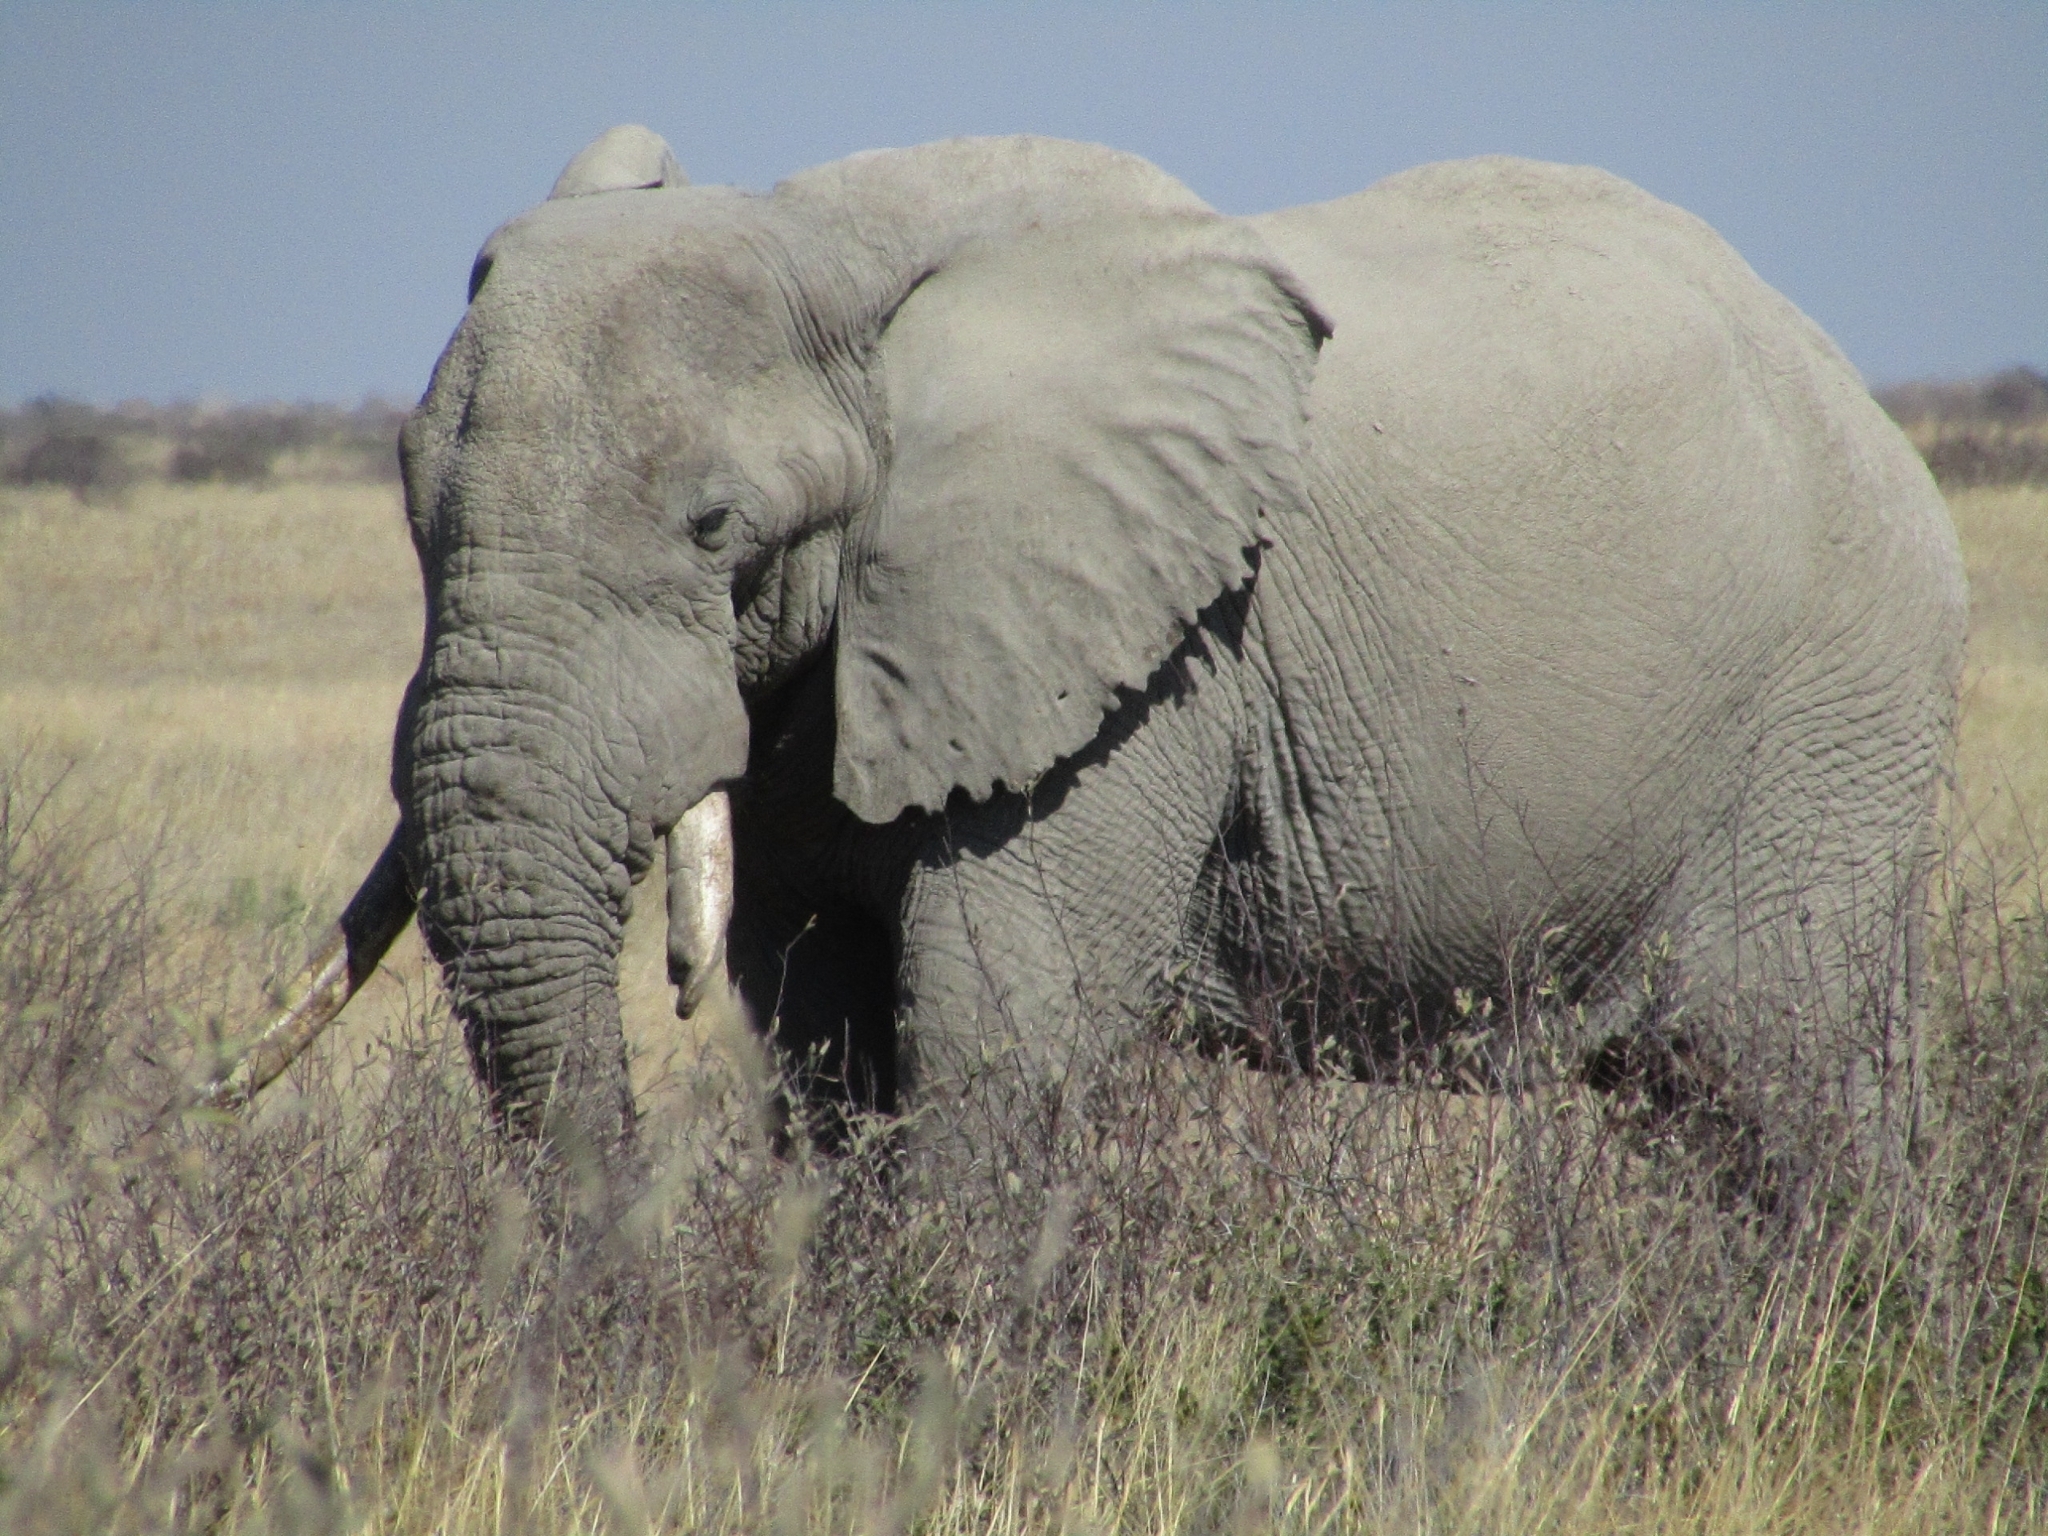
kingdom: Animalia
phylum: Chordata
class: Mammalia
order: Proboscidea
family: Elephantidae
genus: Loxodonta
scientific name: Loxodonta africana
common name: African elephant
